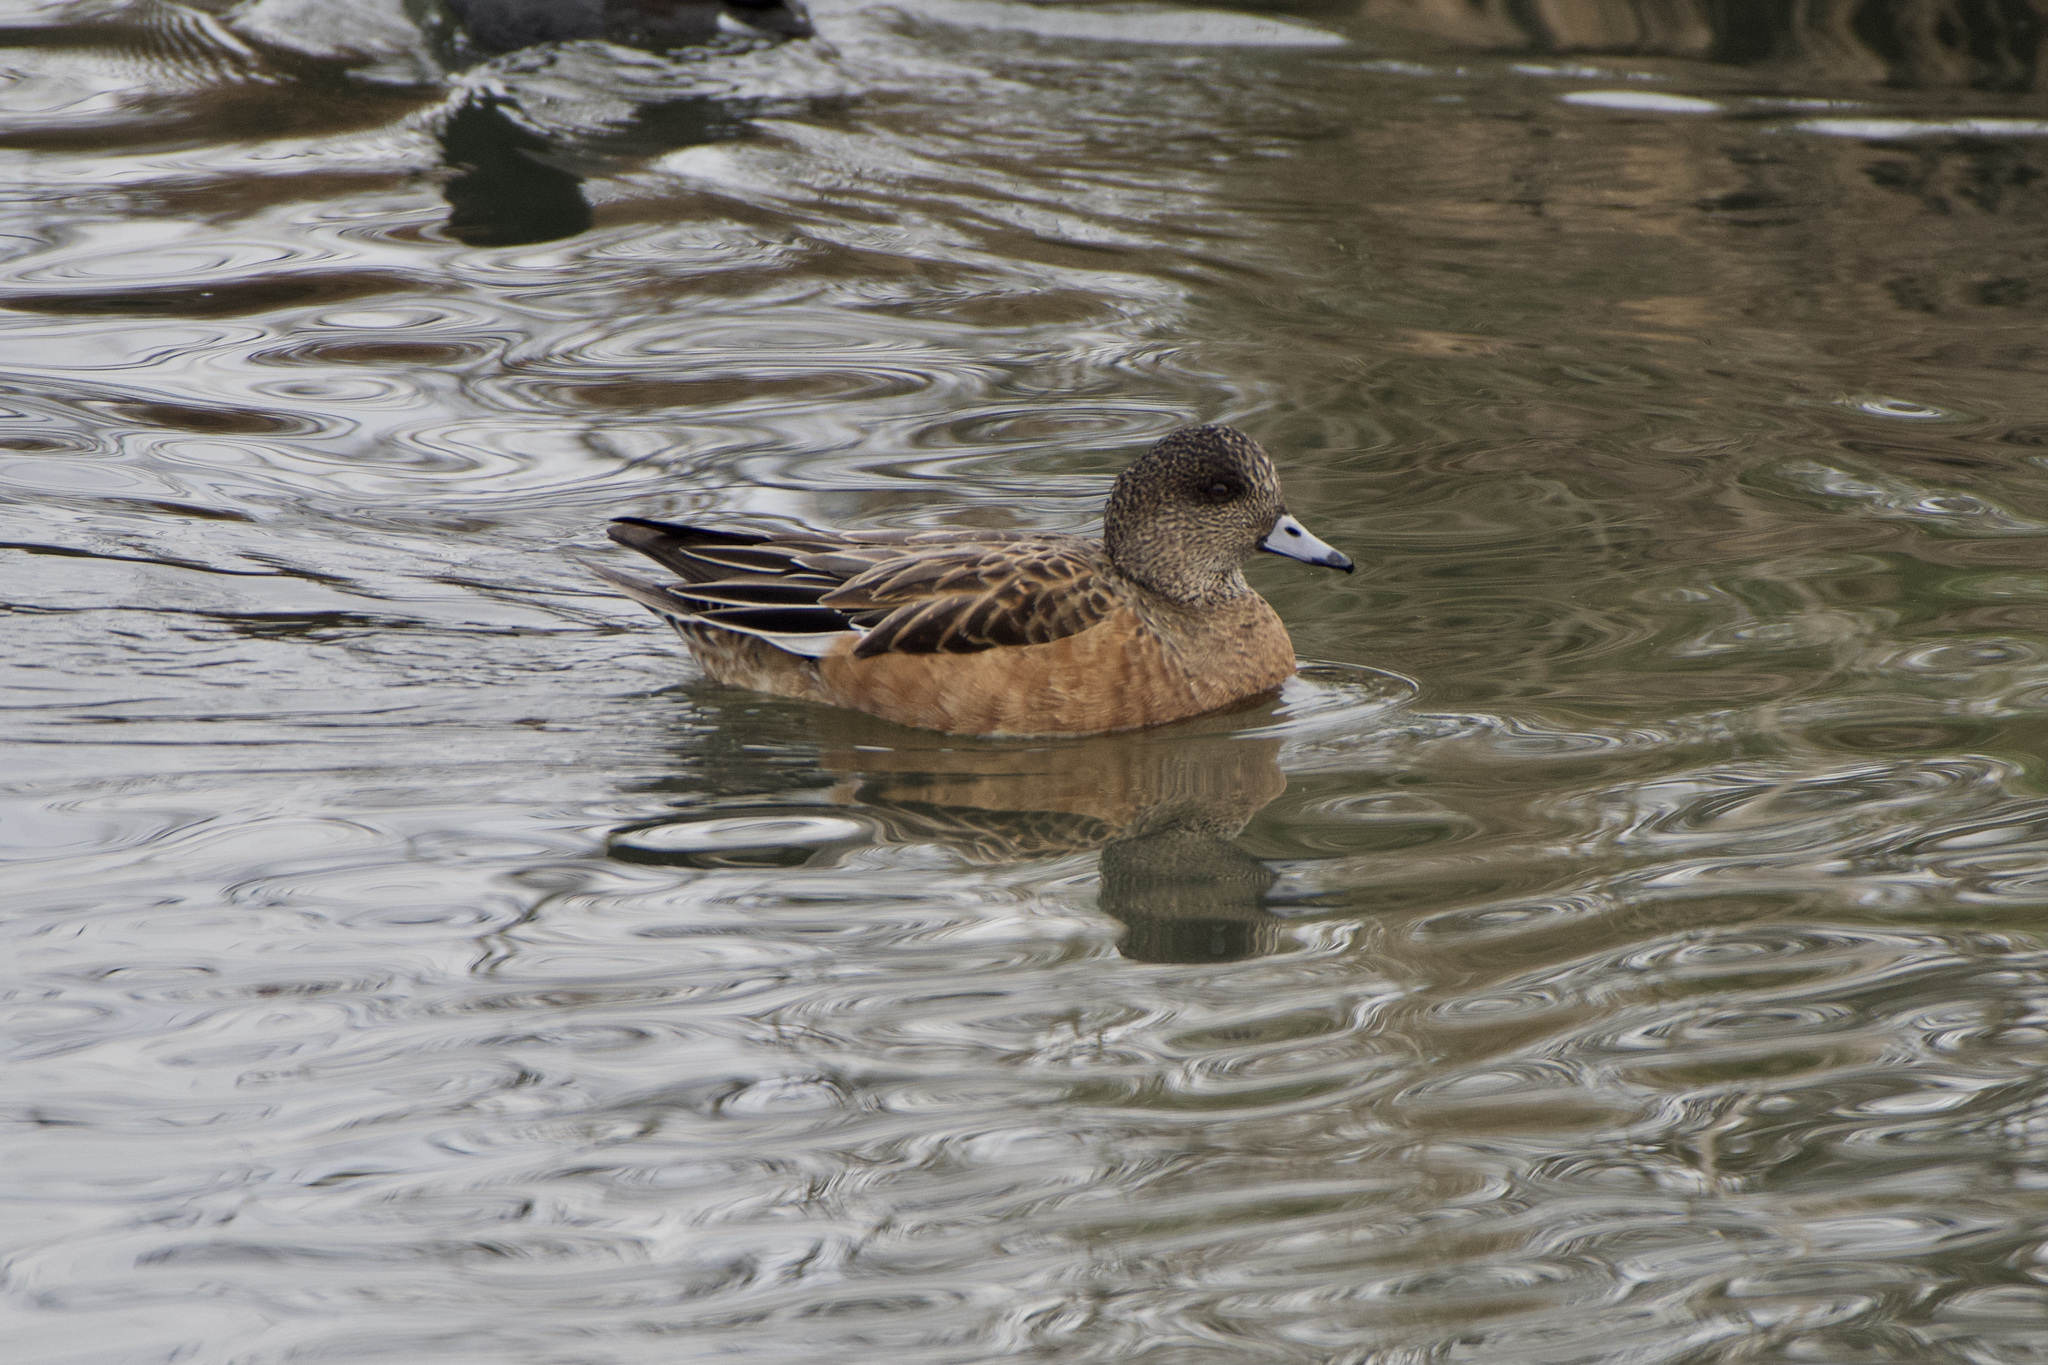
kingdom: Animalia
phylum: Chordata
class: Aves
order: Anseriformes
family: Anatidae
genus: Mareca
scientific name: Mareca americana
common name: American wigeon
